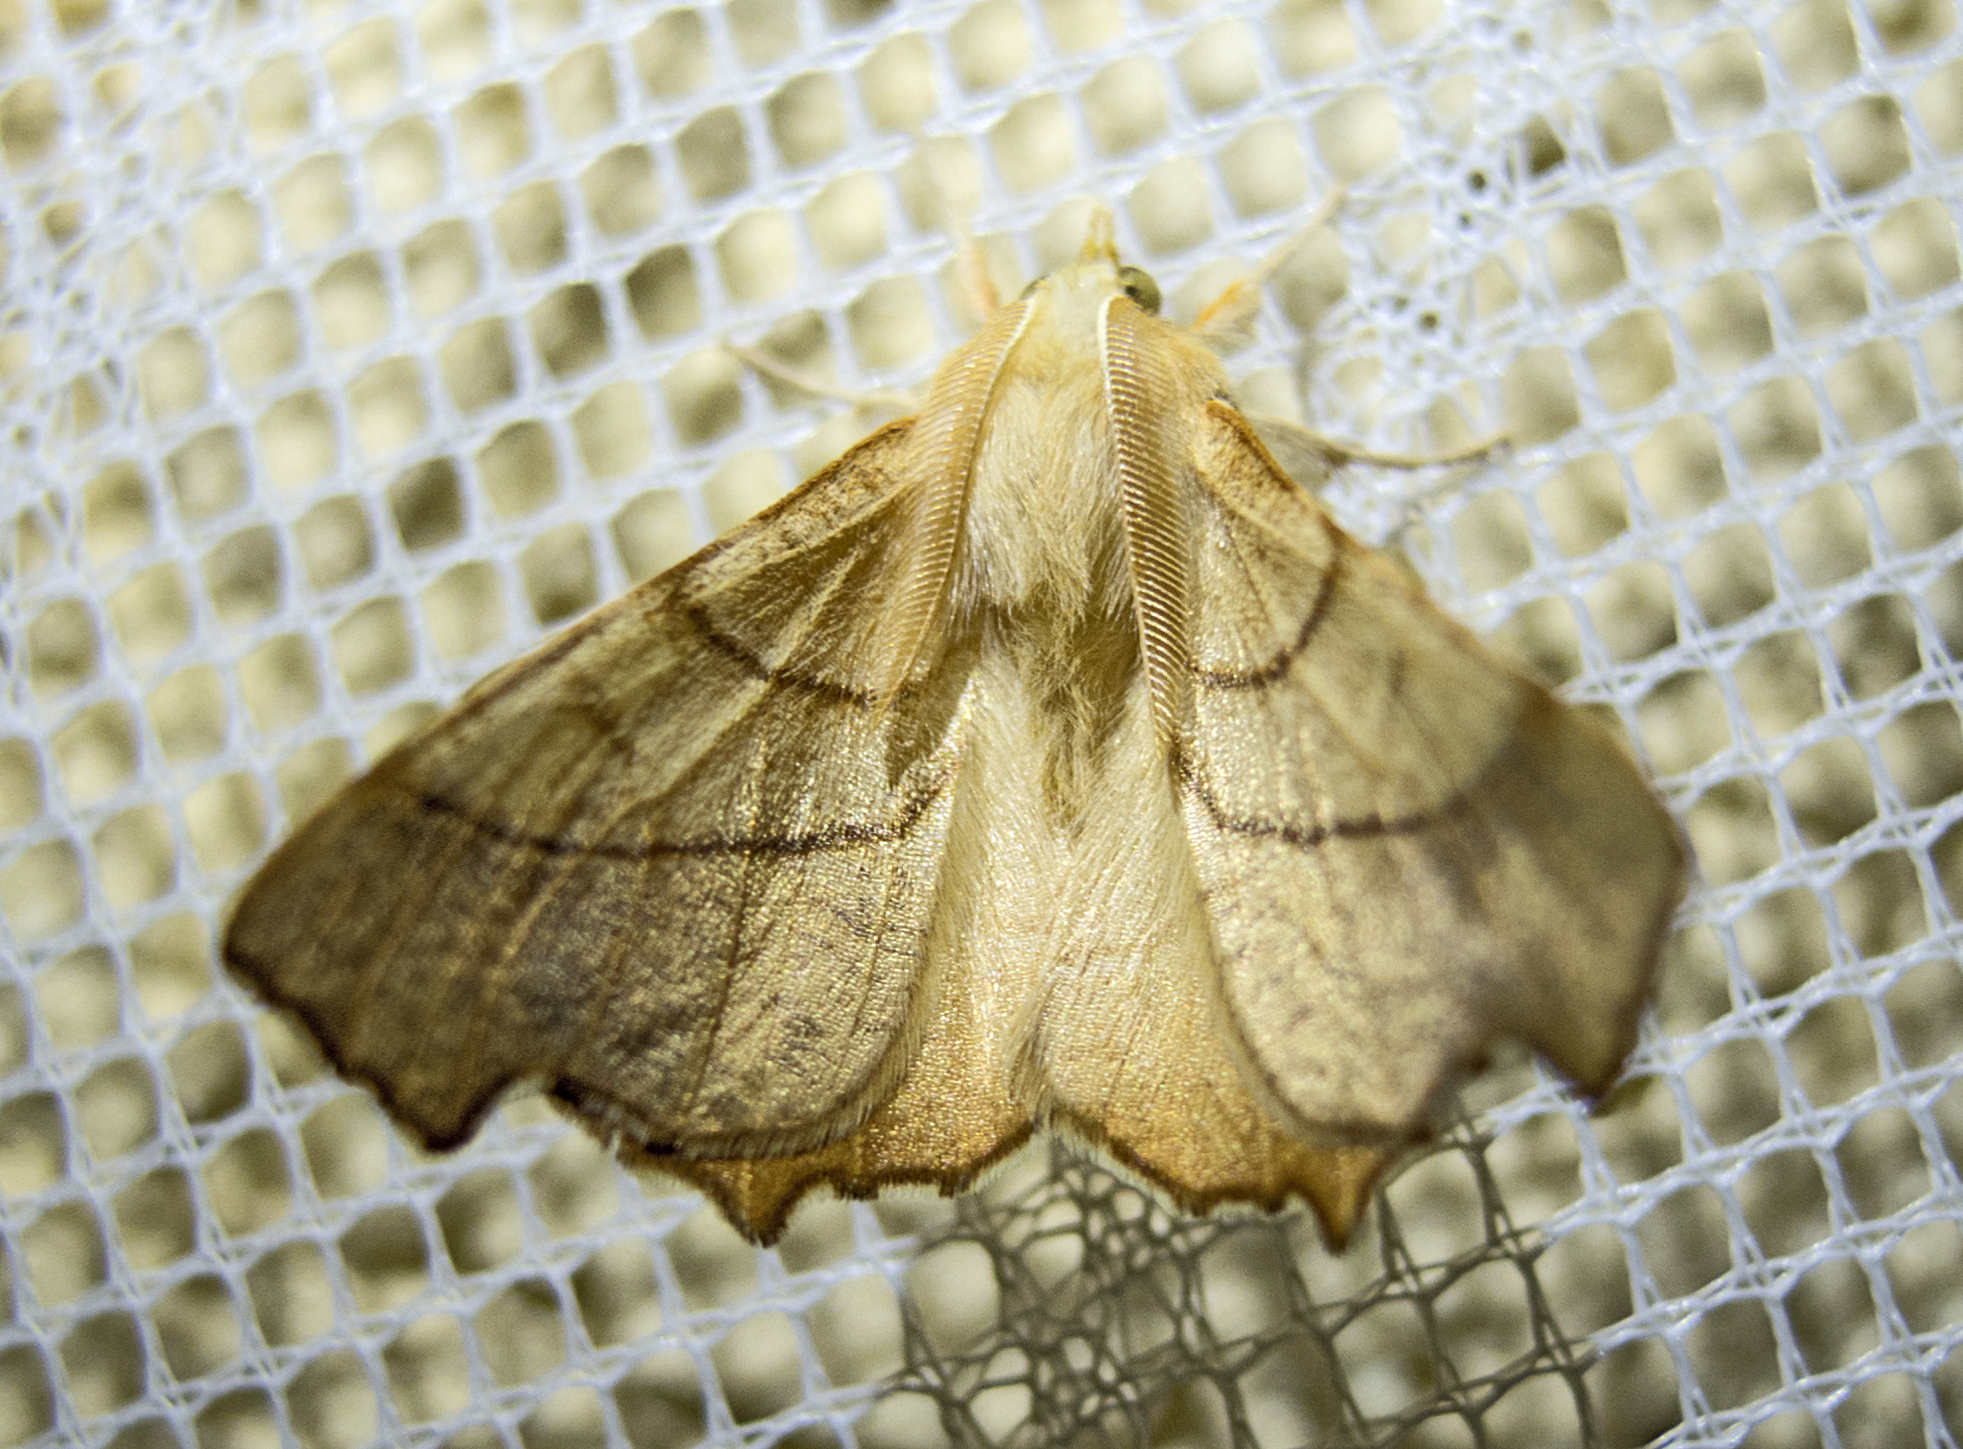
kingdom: Animalia
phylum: Arthropoda
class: Insecta
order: Lepidoptera
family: Geometridae
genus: Ennomos
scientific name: Ennomos fuscantaria
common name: Dusky thorn
